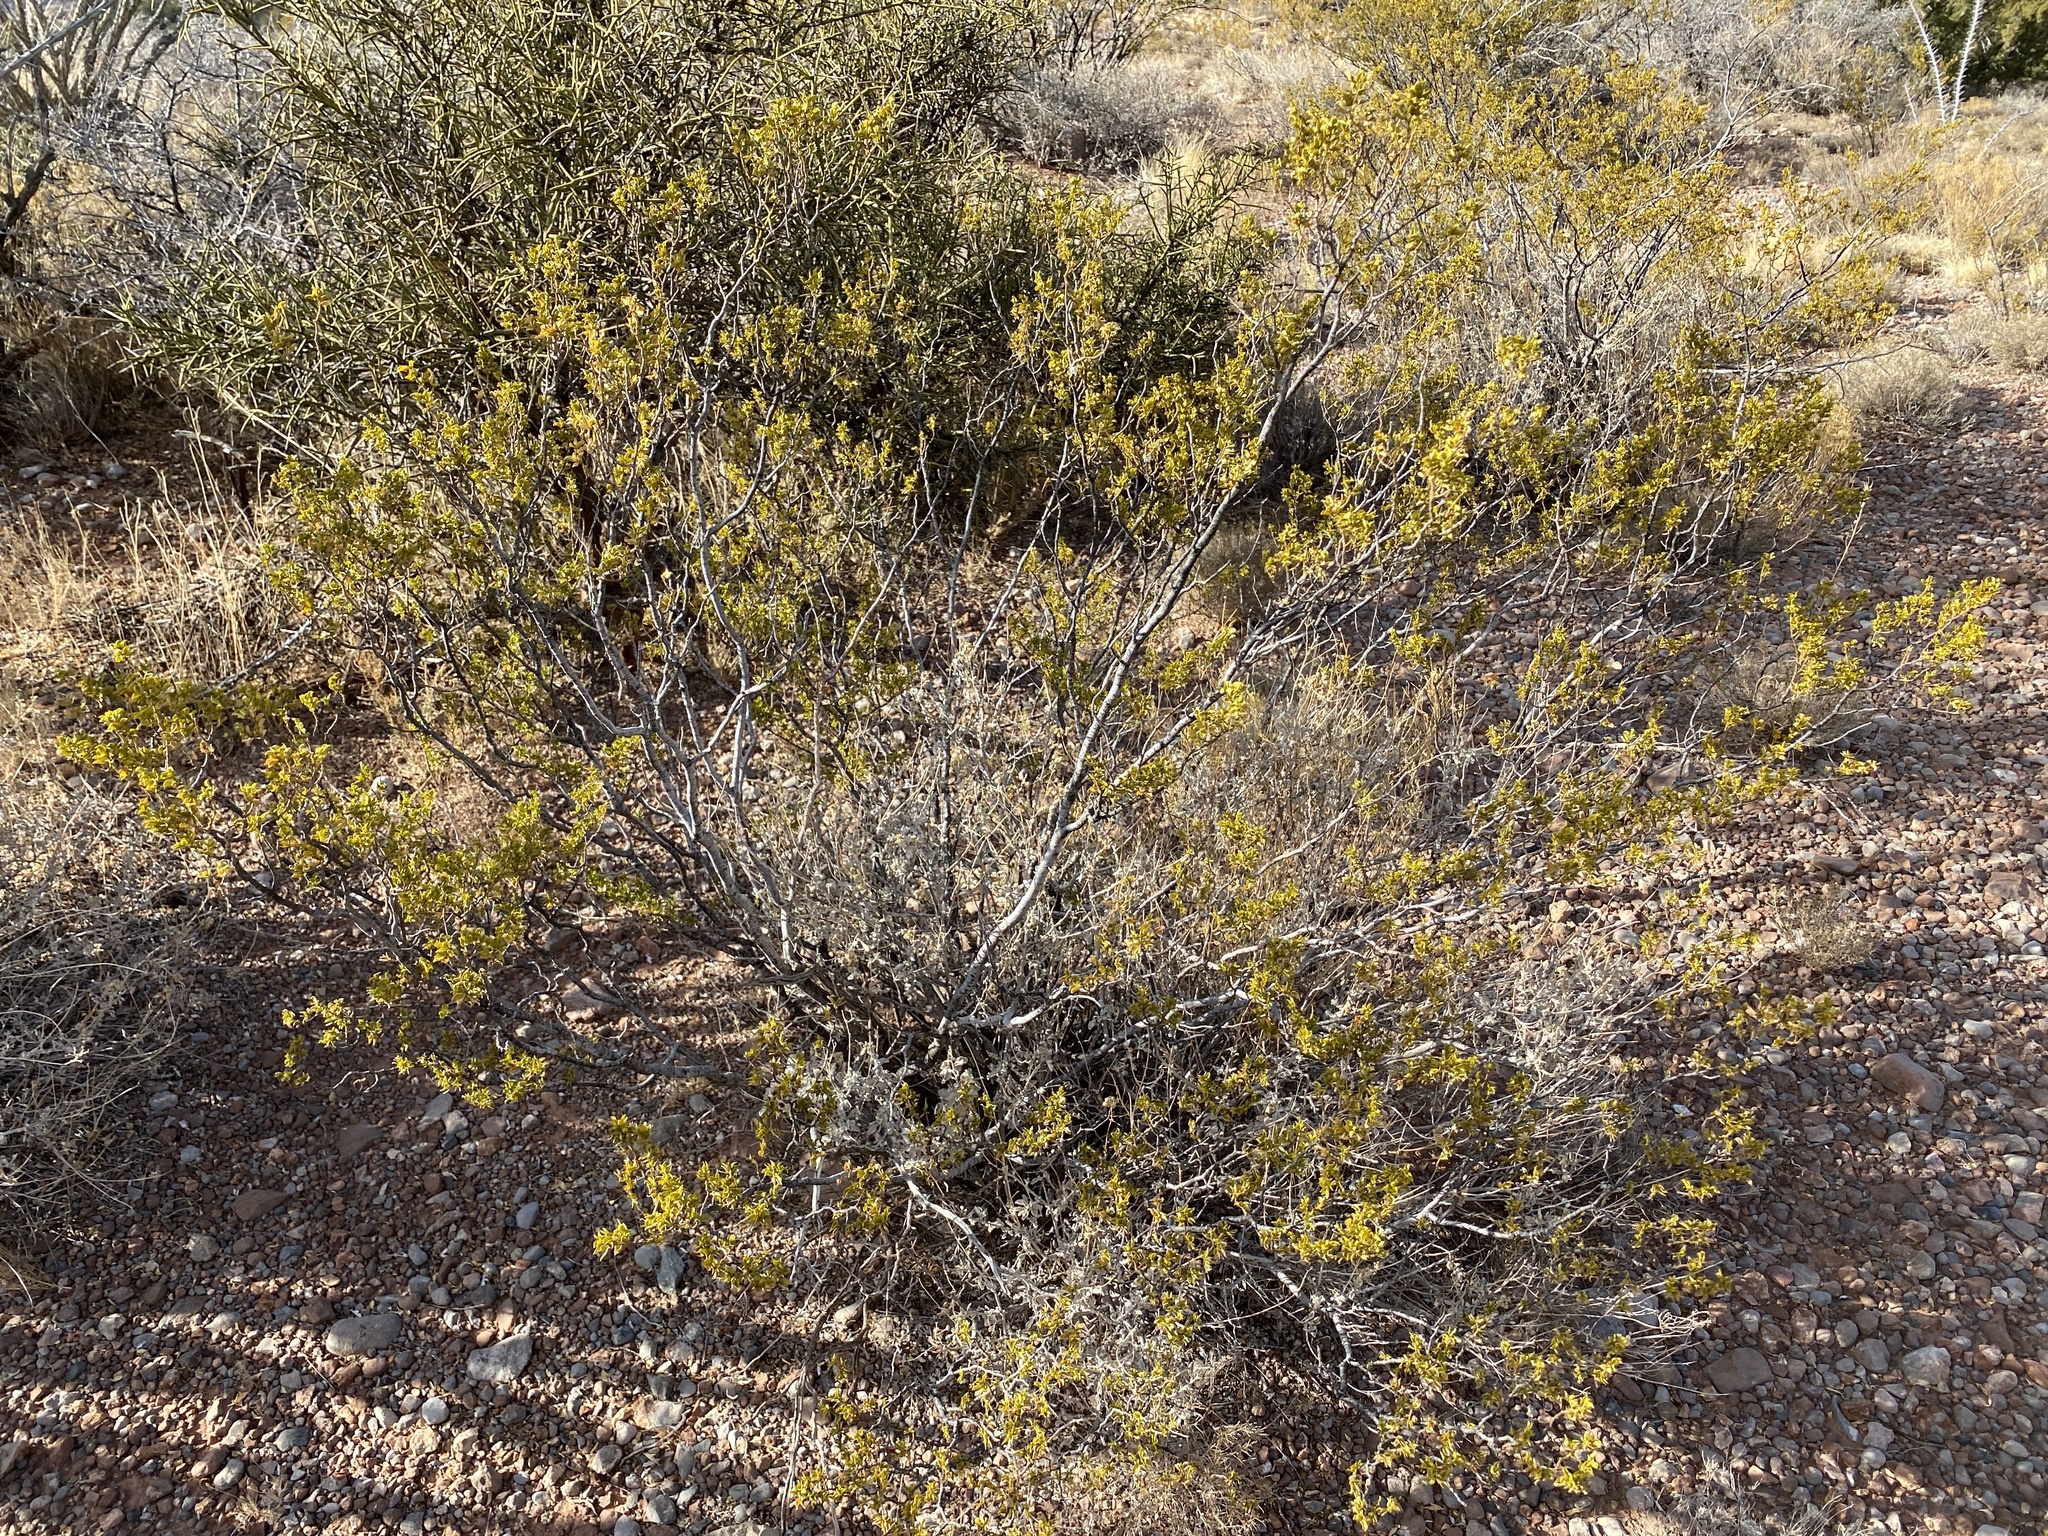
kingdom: Plantae
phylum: Tracheophyta
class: Magnoliopsida
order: Zygophyllales
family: Zygophyllaceae
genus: Larrea
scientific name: Larrea tridentata
